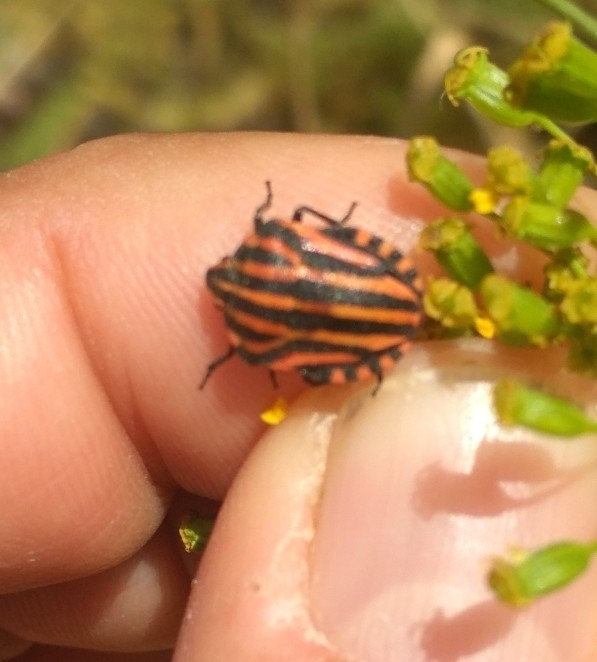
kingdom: Animalia
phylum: Arthropoda
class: Insecta
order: Hemiptera
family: Pentatomidae
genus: Graphosoma
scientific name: Graphosoma italicum
